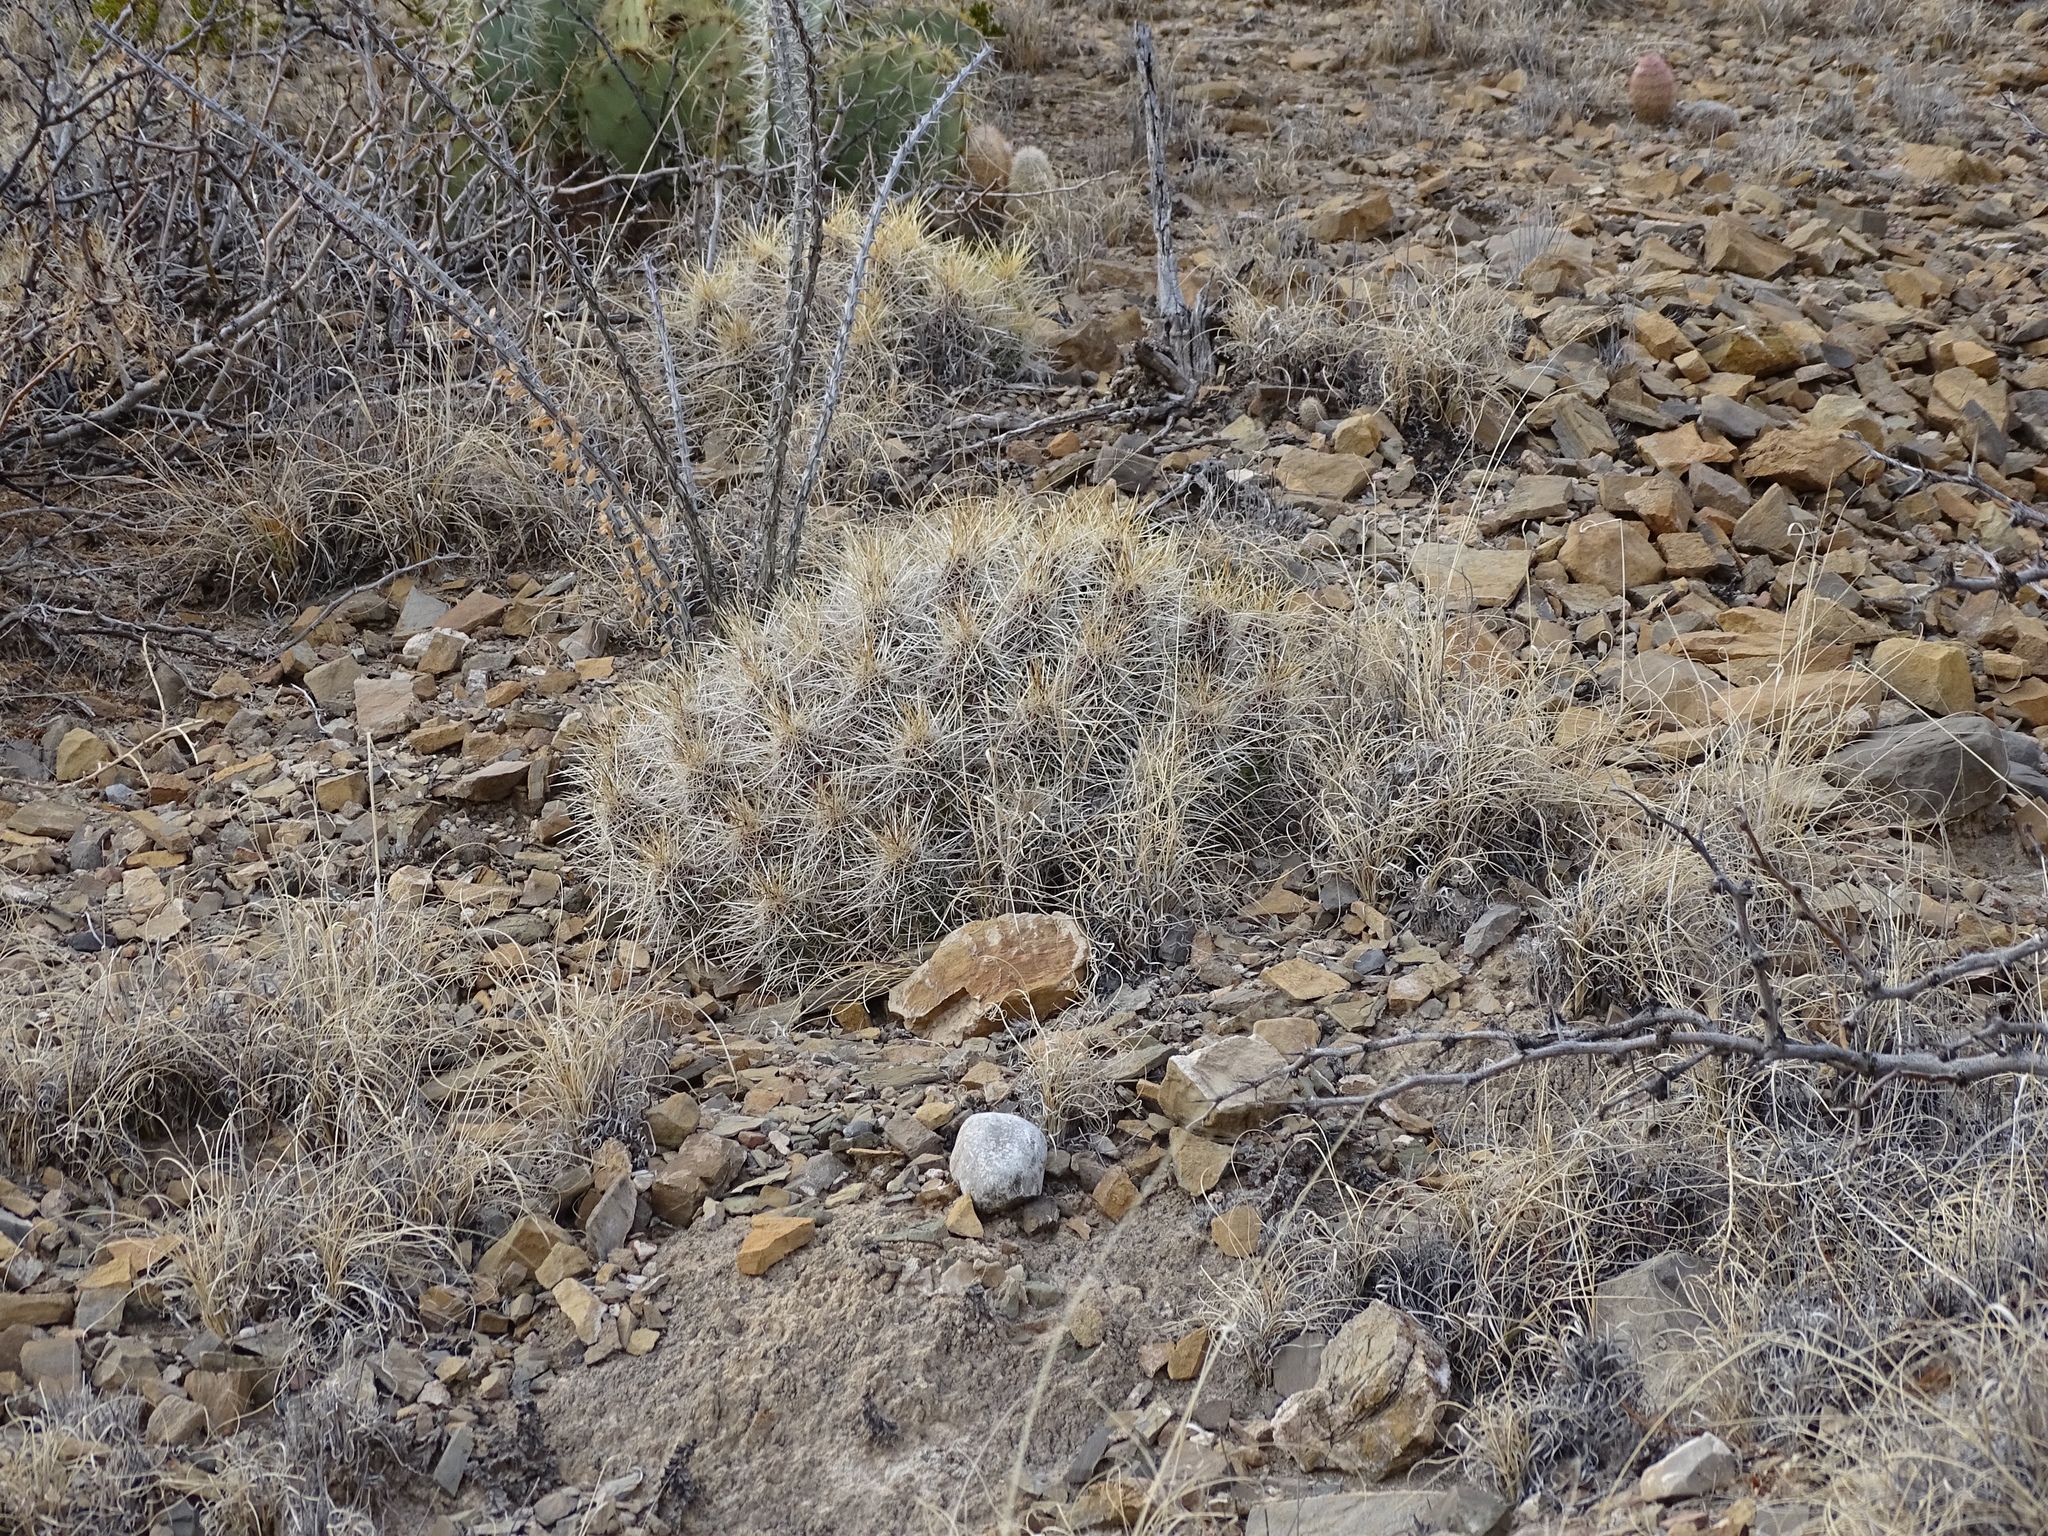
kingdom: Plantae
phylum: Tracheophyta
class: Magnoliopsida
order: Caryophyllales
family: Cactaceae
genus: Echinocereus
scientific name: Echinocereus stramineus
